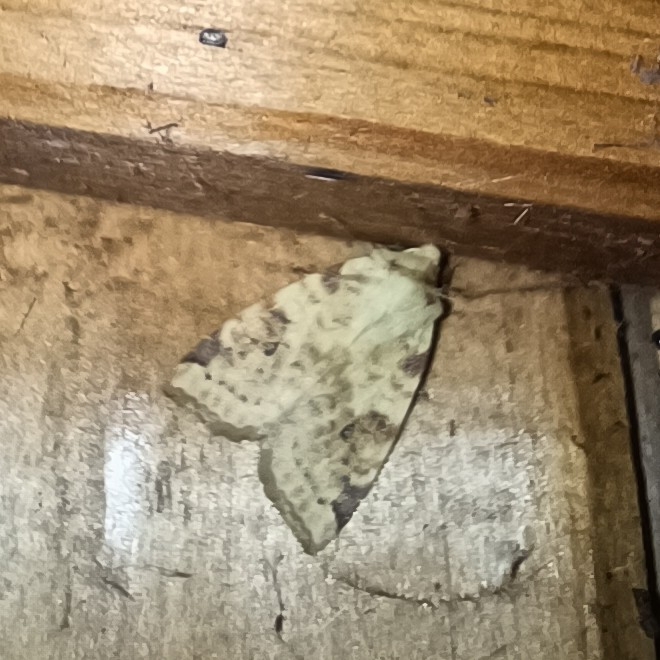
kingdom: Animalia
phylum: Arthropoda
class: Insecta
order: Lepidoptera
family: Noctuidae
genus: Xanthia
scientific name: Xanthia icteritia
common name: The sallow
